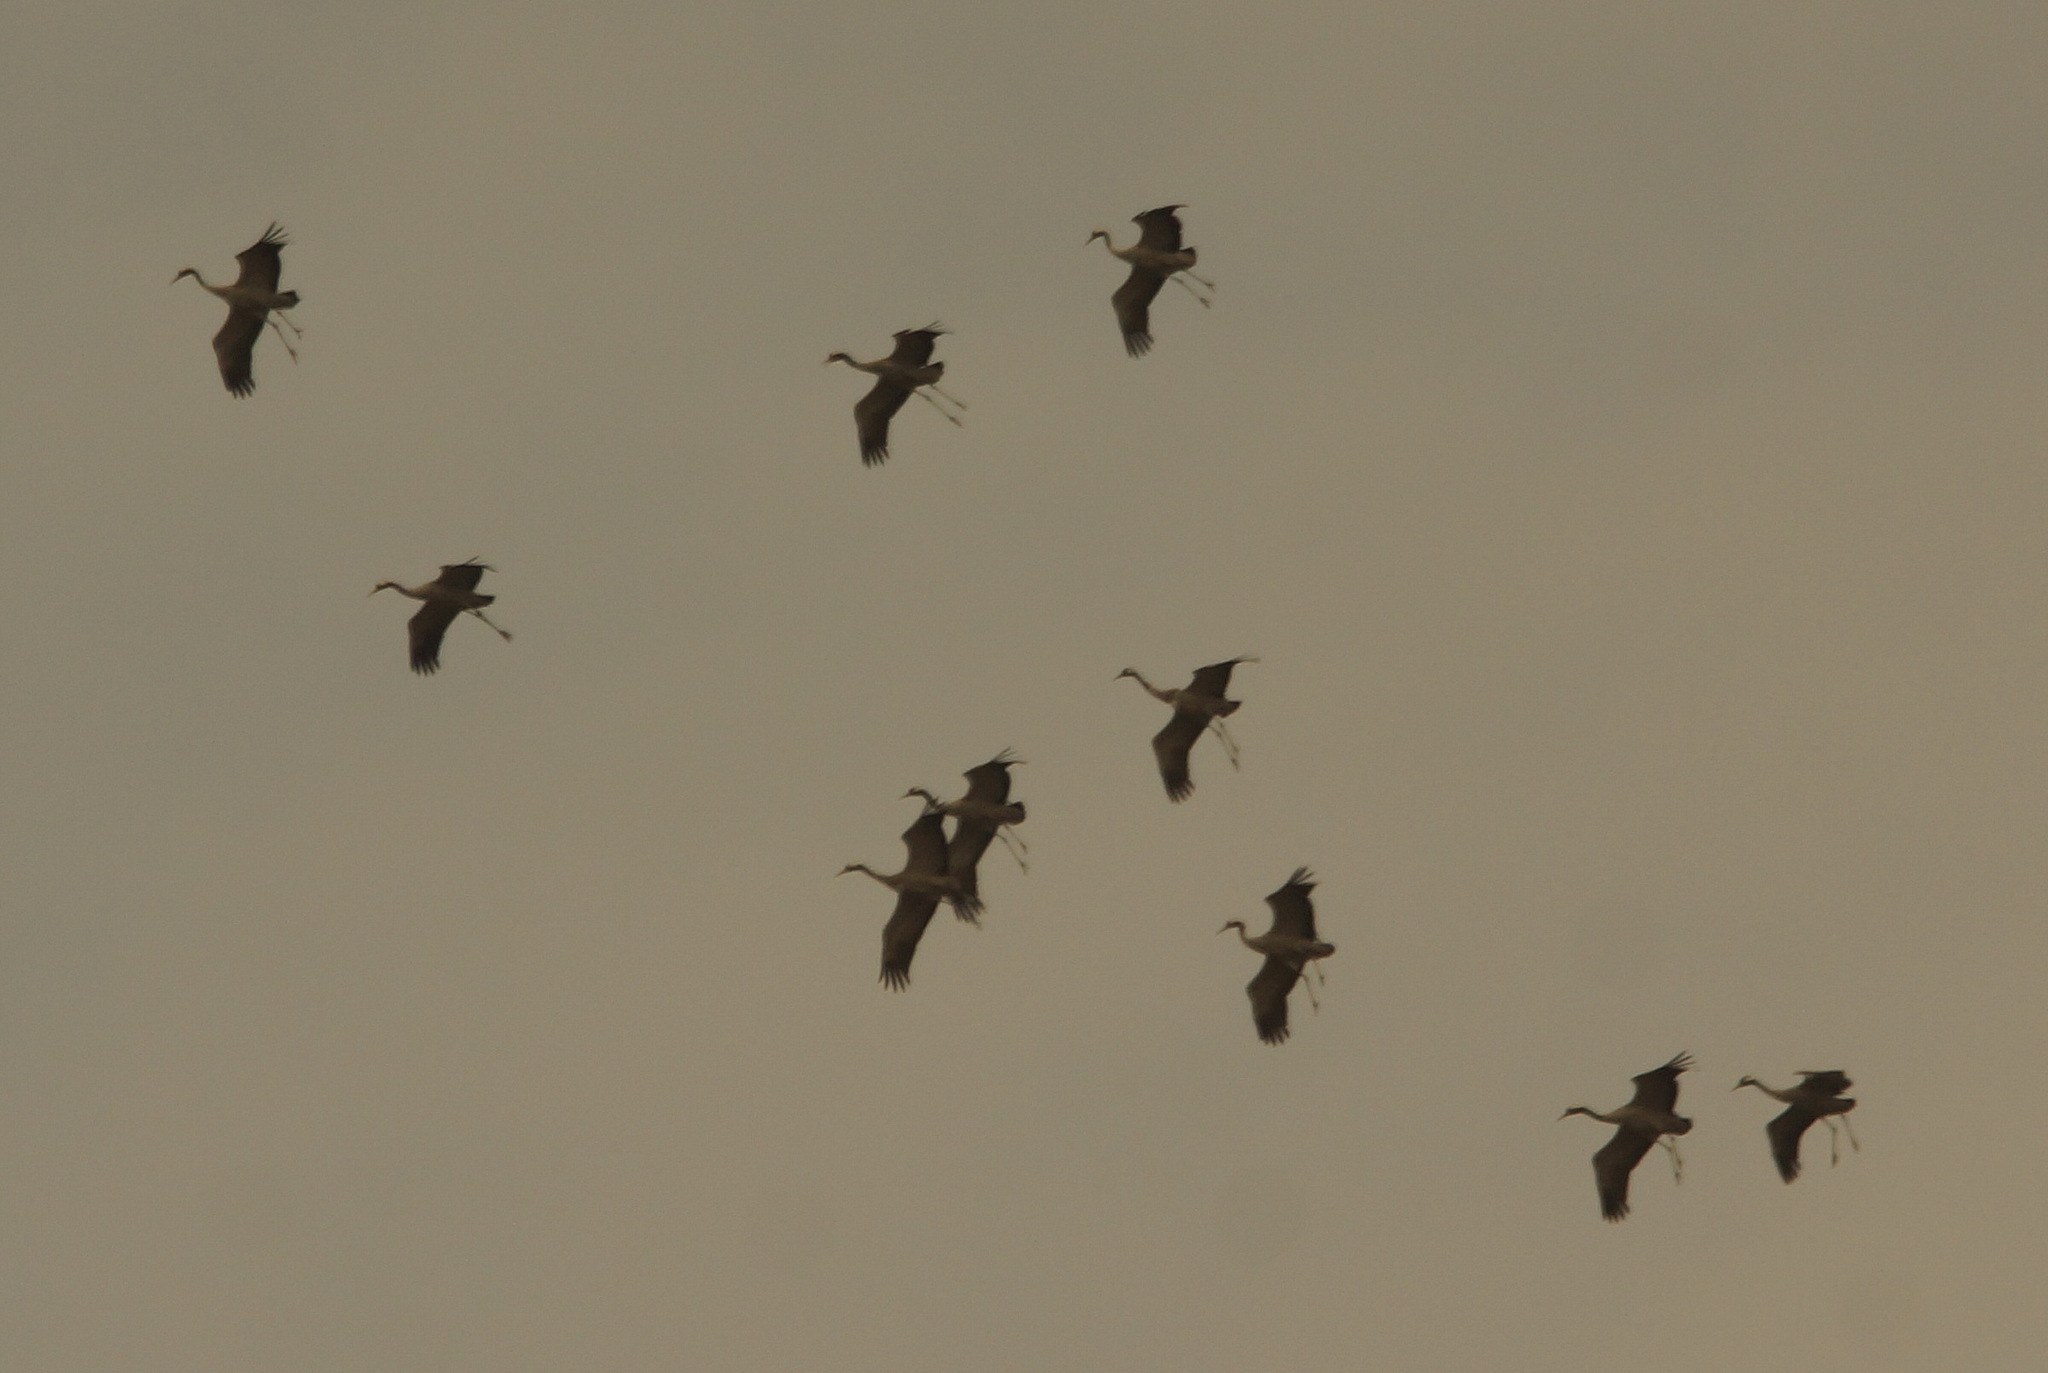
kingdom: Animalia
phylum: Chordata
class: Aves
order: Gruiformes
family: Gruidae
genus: Grus
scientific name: Grus grus
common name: Common crane
